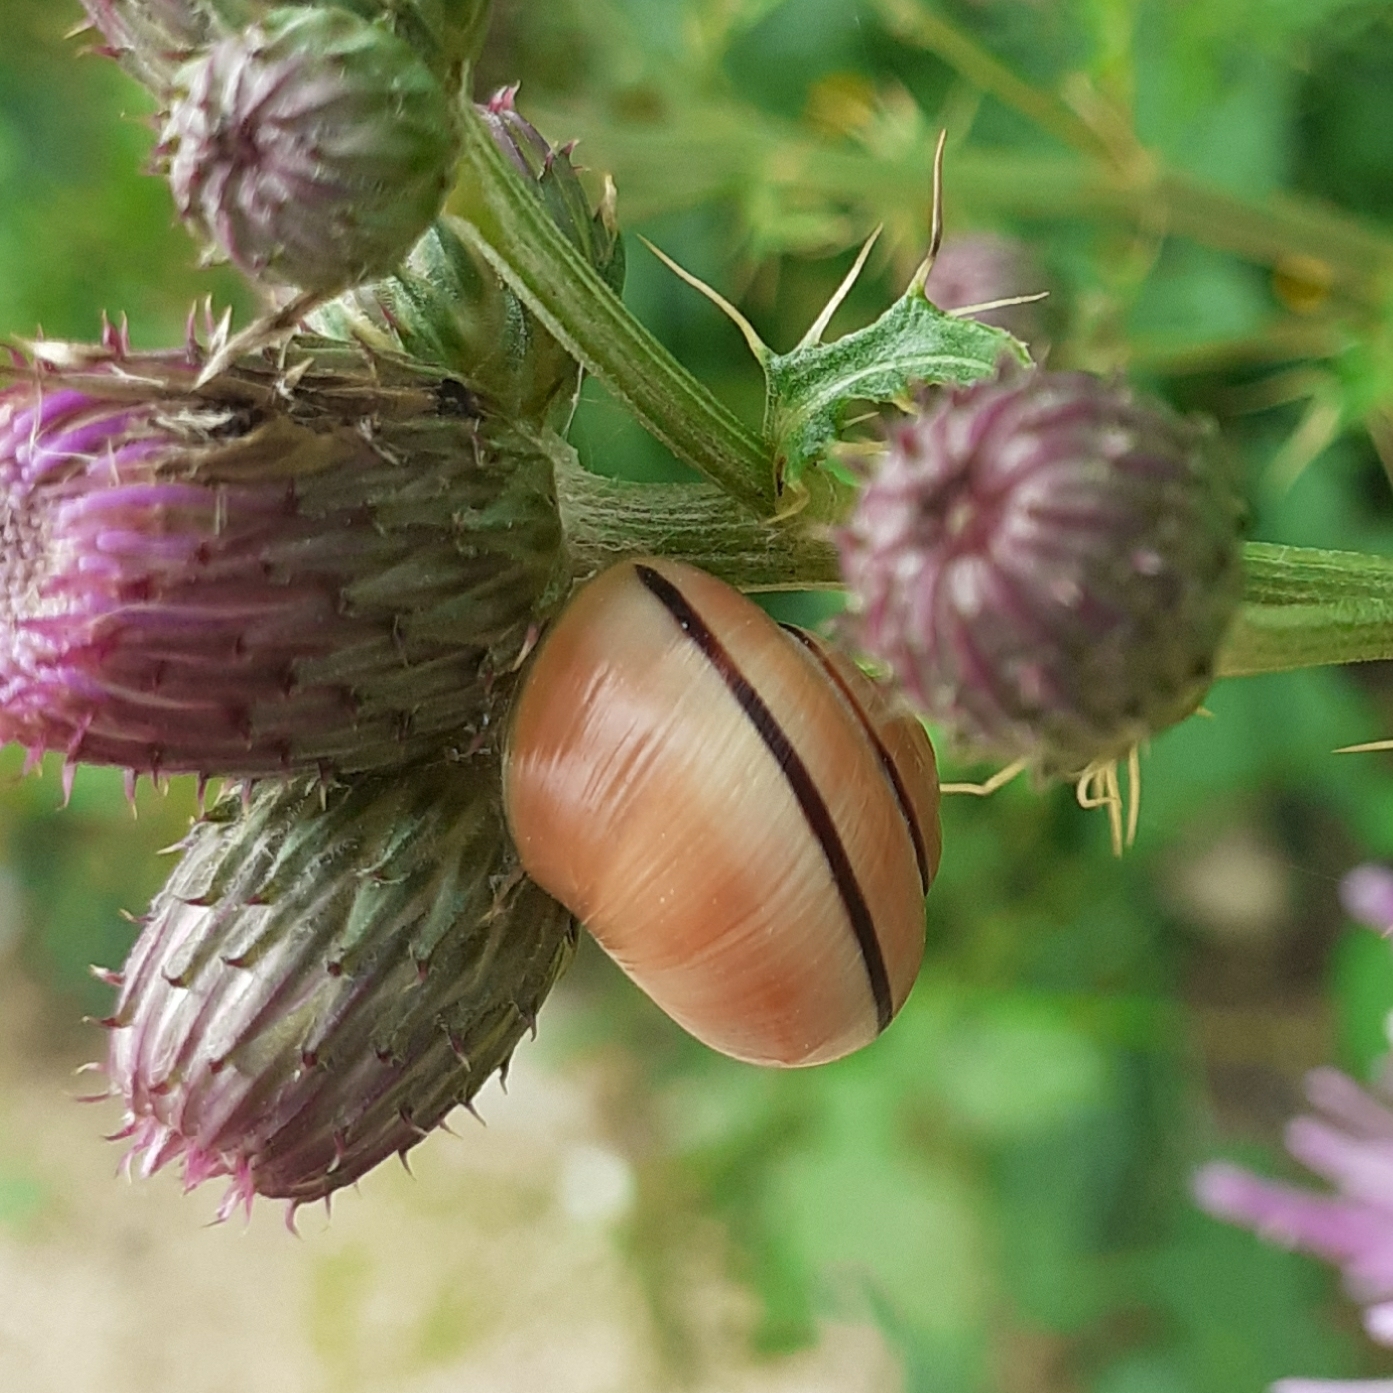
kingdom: Animalia
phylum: Mollusca
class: Gastropoda
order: Stylommatophora
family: Helicidae
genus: Cepaea
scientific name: Cepaea
